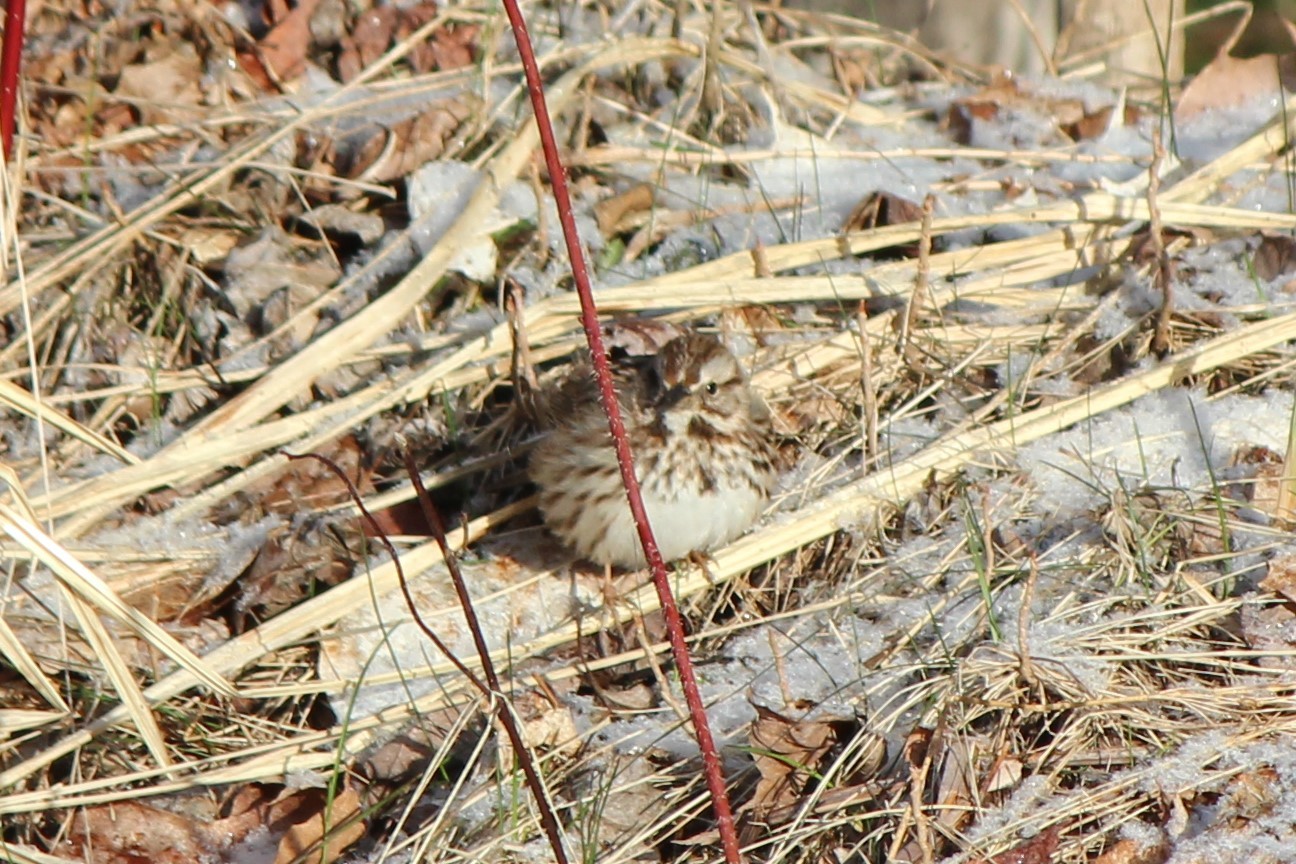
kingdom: Animalia
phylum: Chordata
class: Aves
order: Passeriformes
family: Passerellidae
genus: Melospiza
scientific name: Melospiza melodia
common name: Song sparrow
